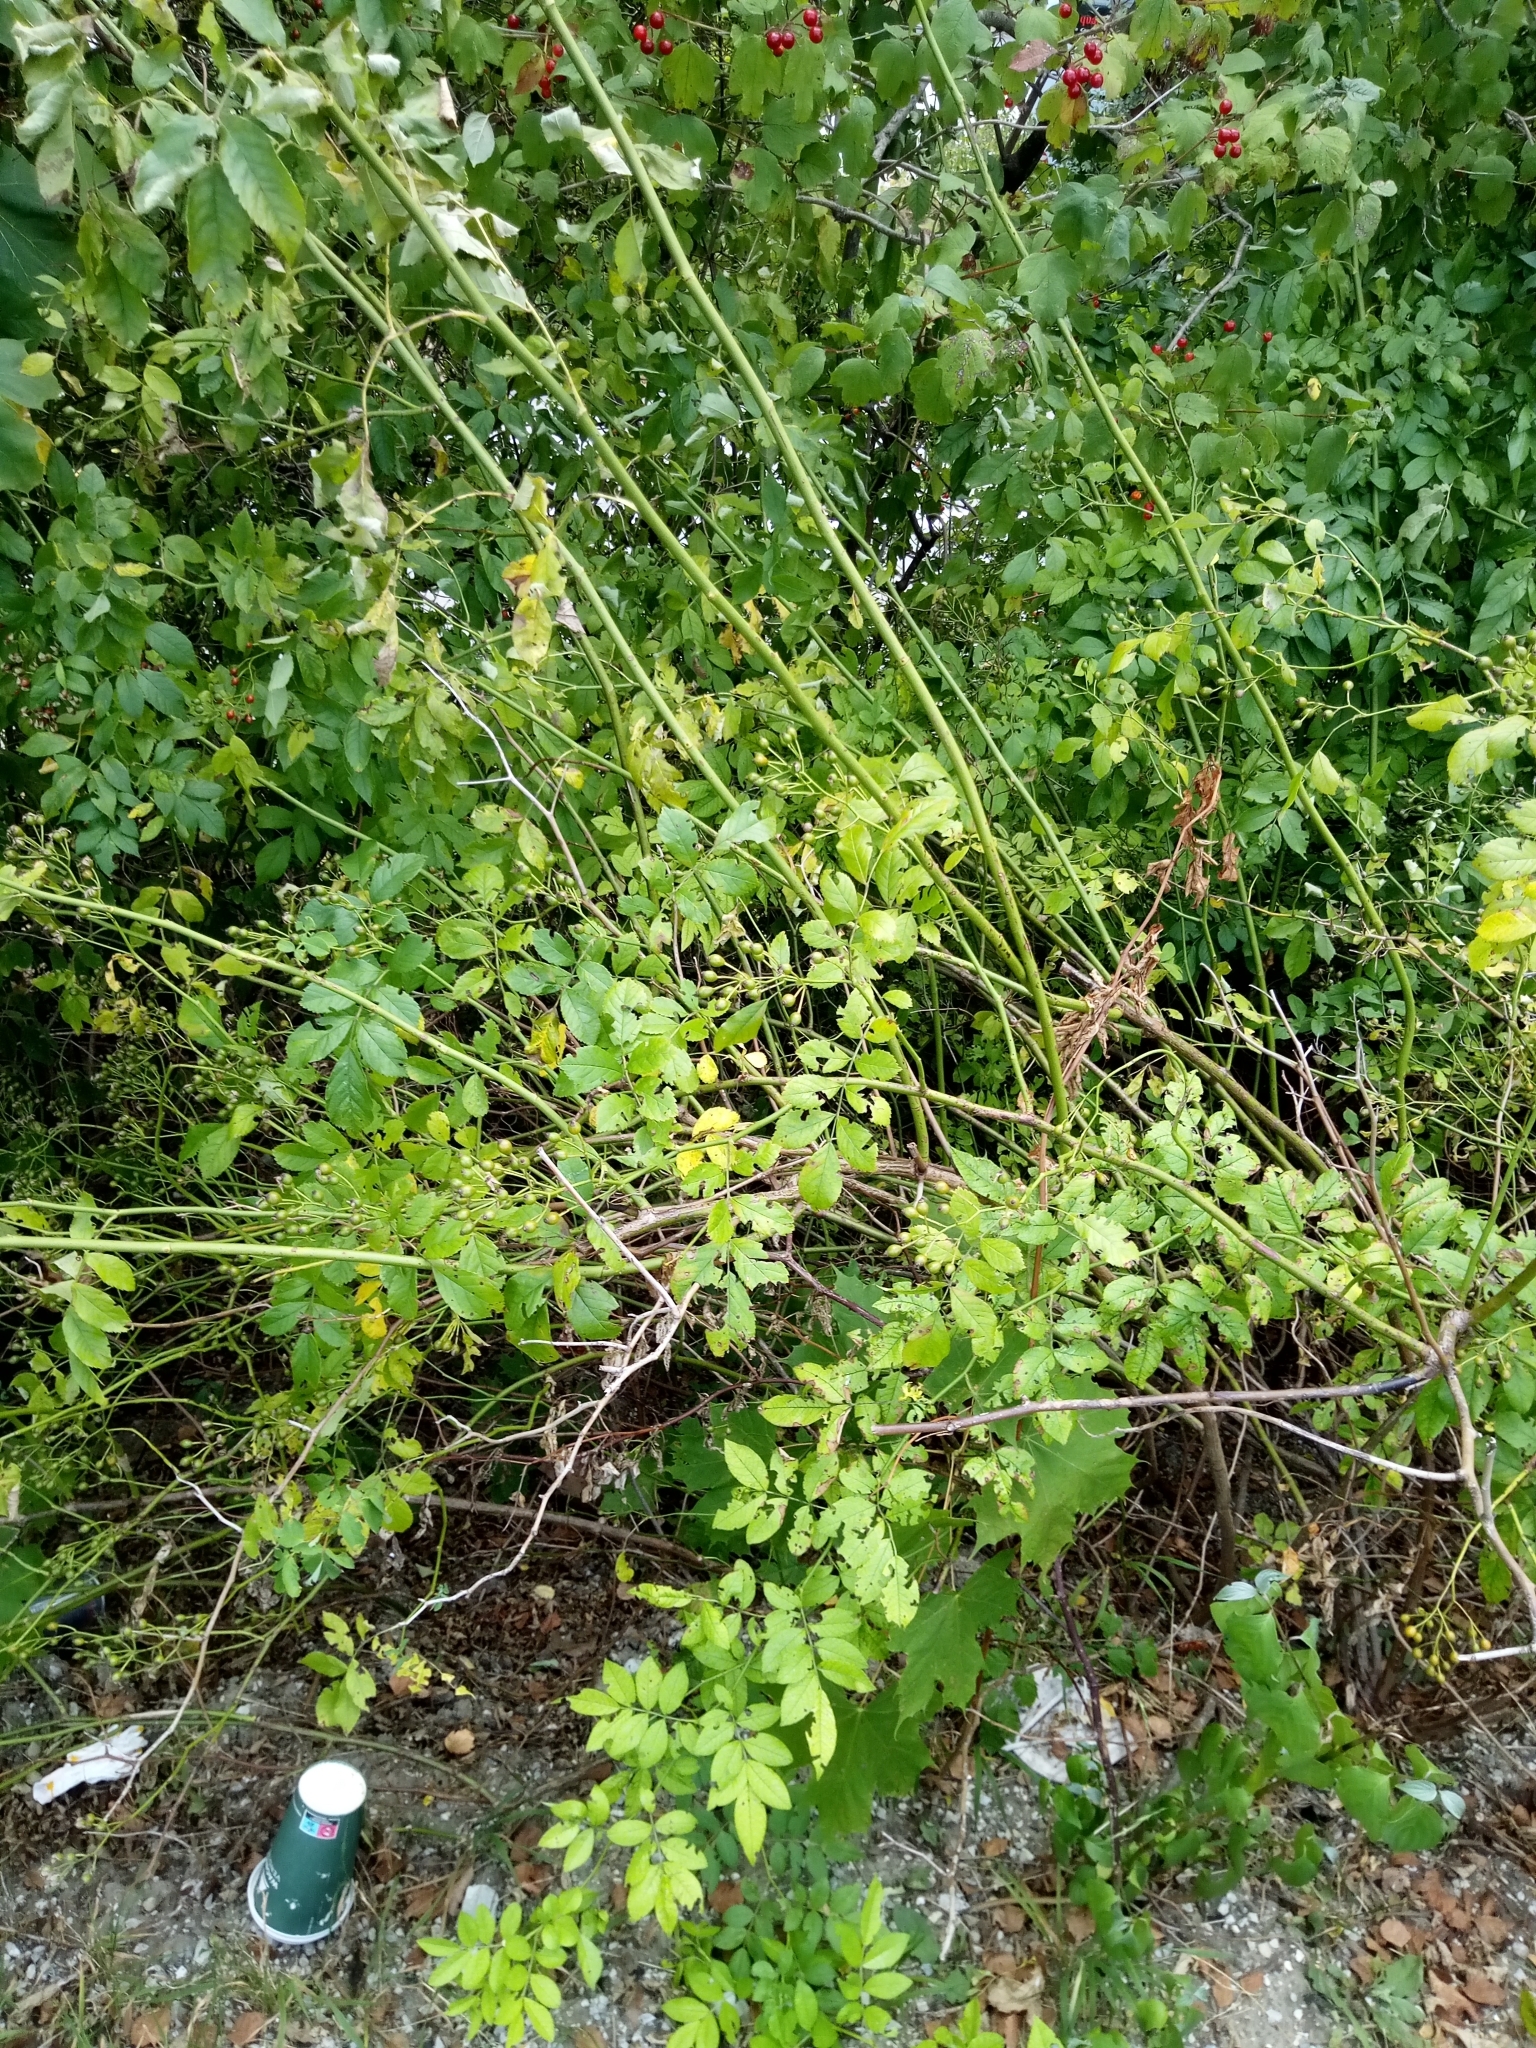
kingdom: Plantae
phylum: Tracheophyta
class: Magnoliopsida
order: Rosales
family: Rosaceae
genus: Rosa
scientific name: Rosa multiflora
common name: Multiflora rose
